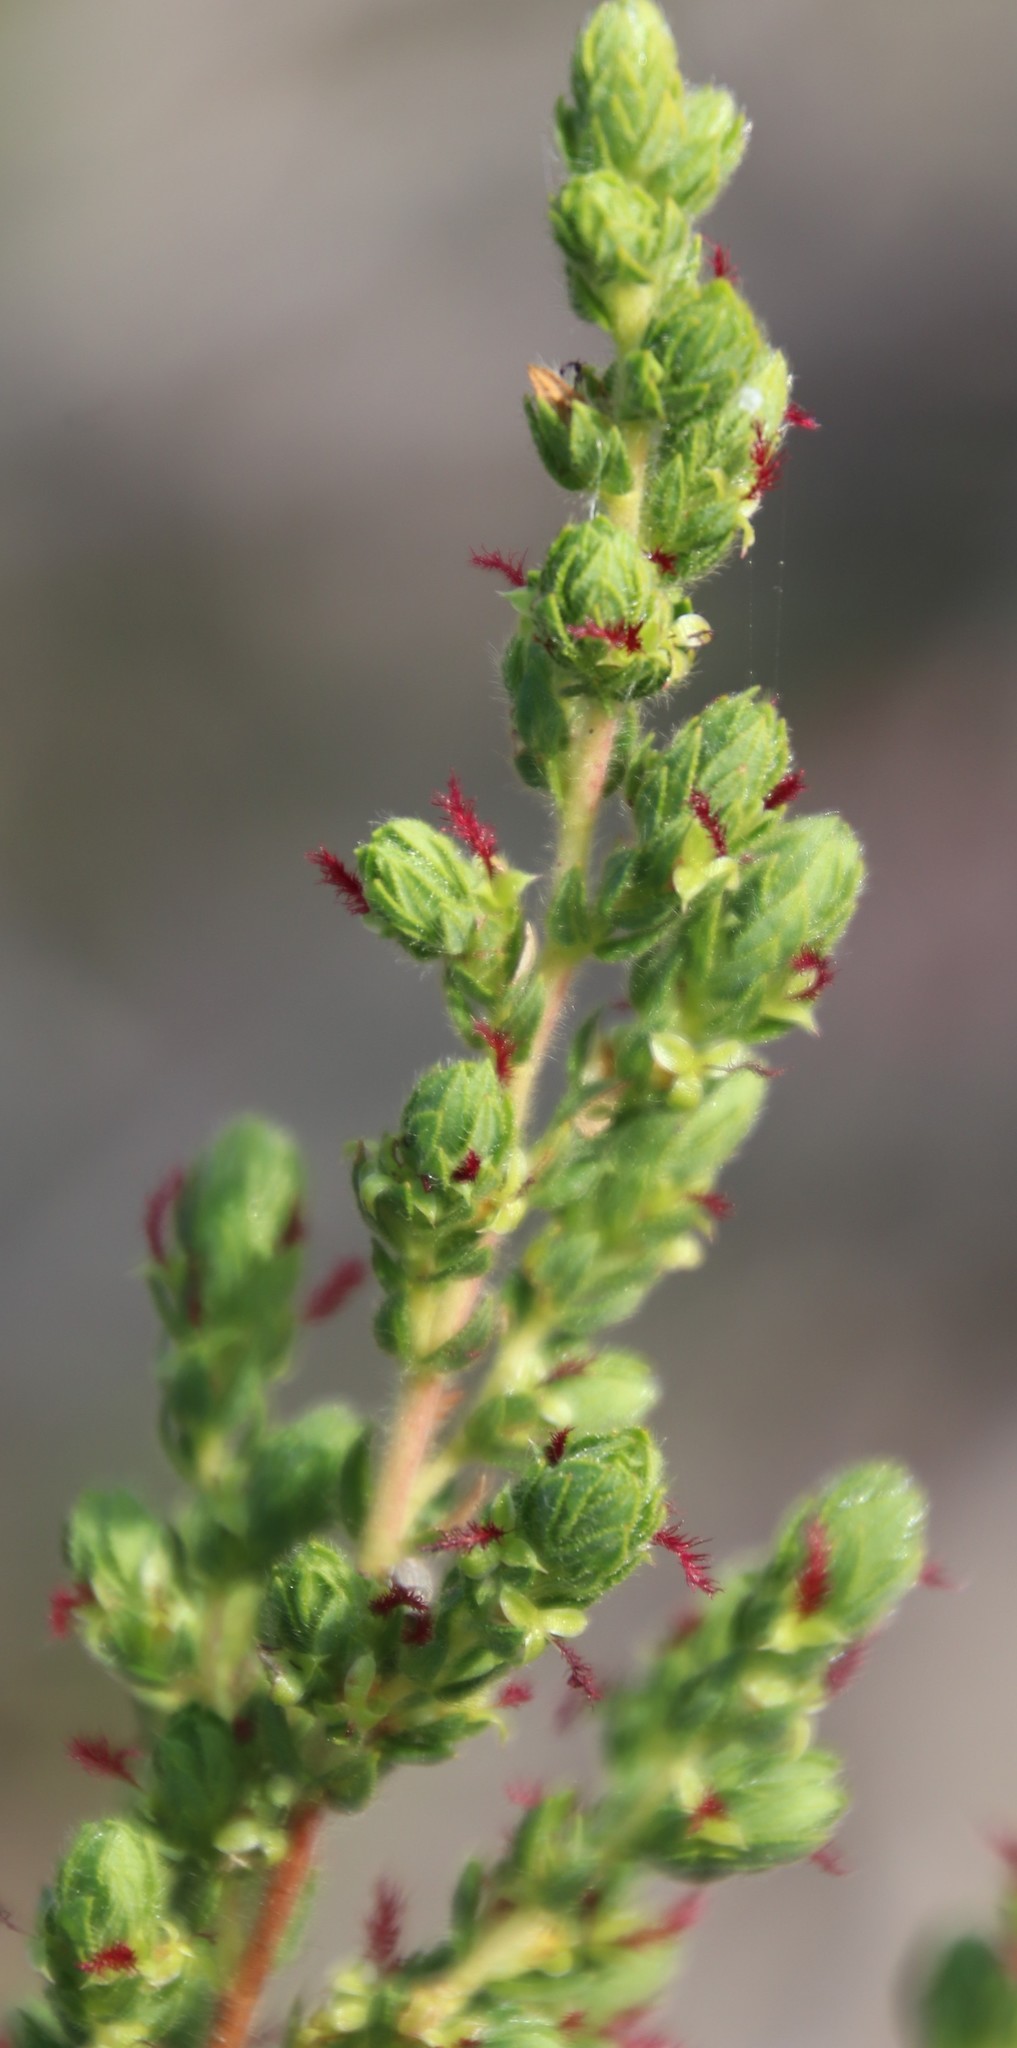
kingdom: Plantae
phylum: Tracheophyta
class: Magnoliopsida
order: Rosales
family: Rosaceae
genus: Cliffortia
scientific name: Cliffortia polygonifolia
